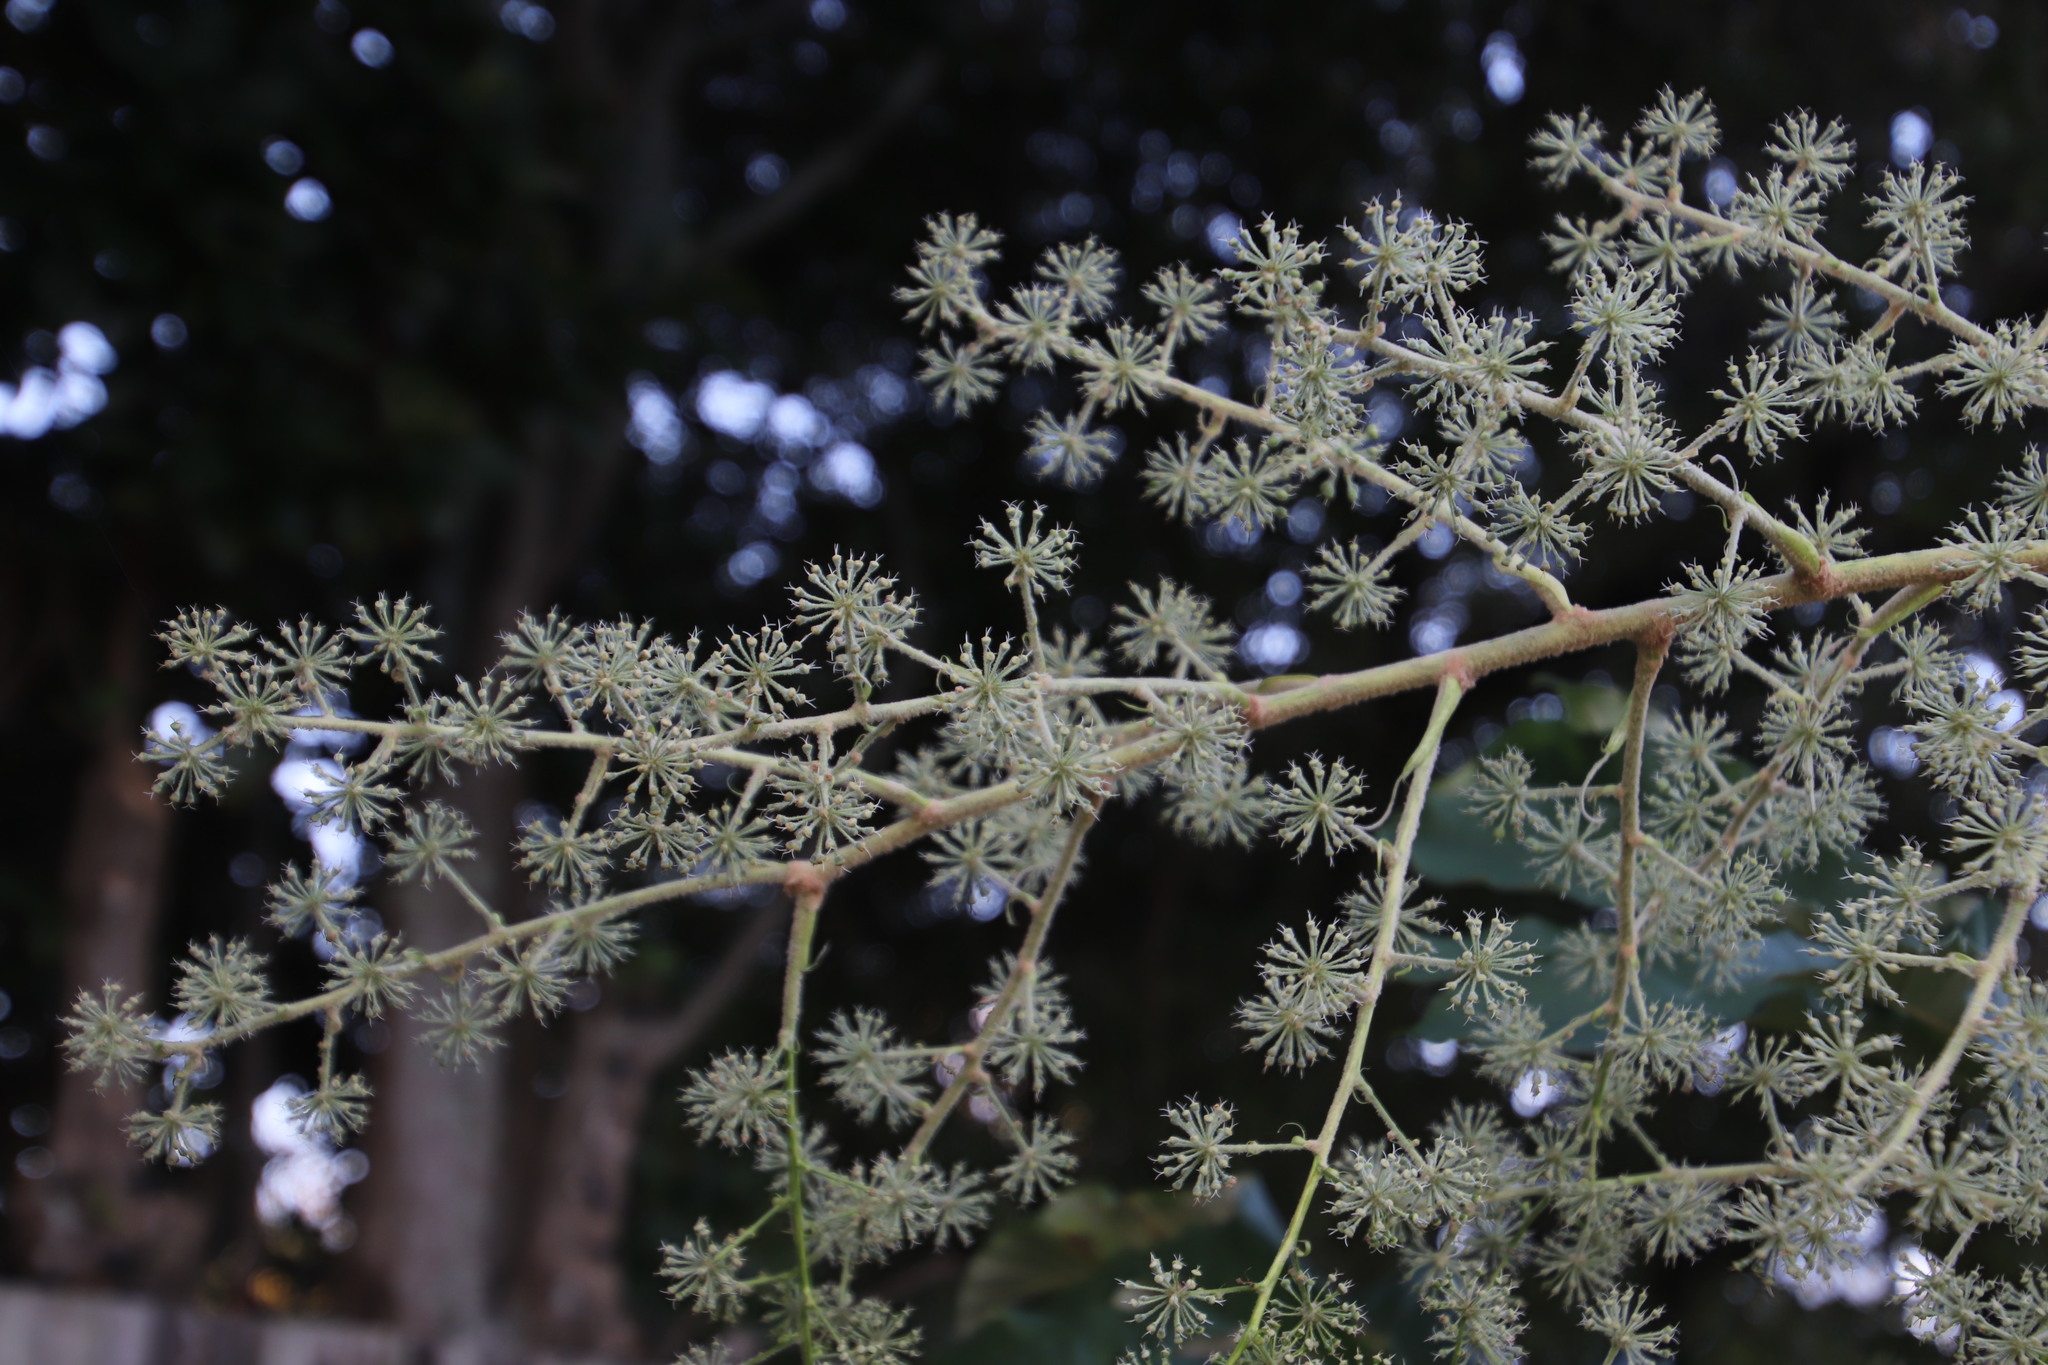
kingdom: Plantae
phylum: Tracheophyta
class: Magnoliopsida
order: Apiales
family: Araliaceae
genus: Tetrapanax
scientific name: Tetrapanax papyrifer
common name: Rice-paper plant
